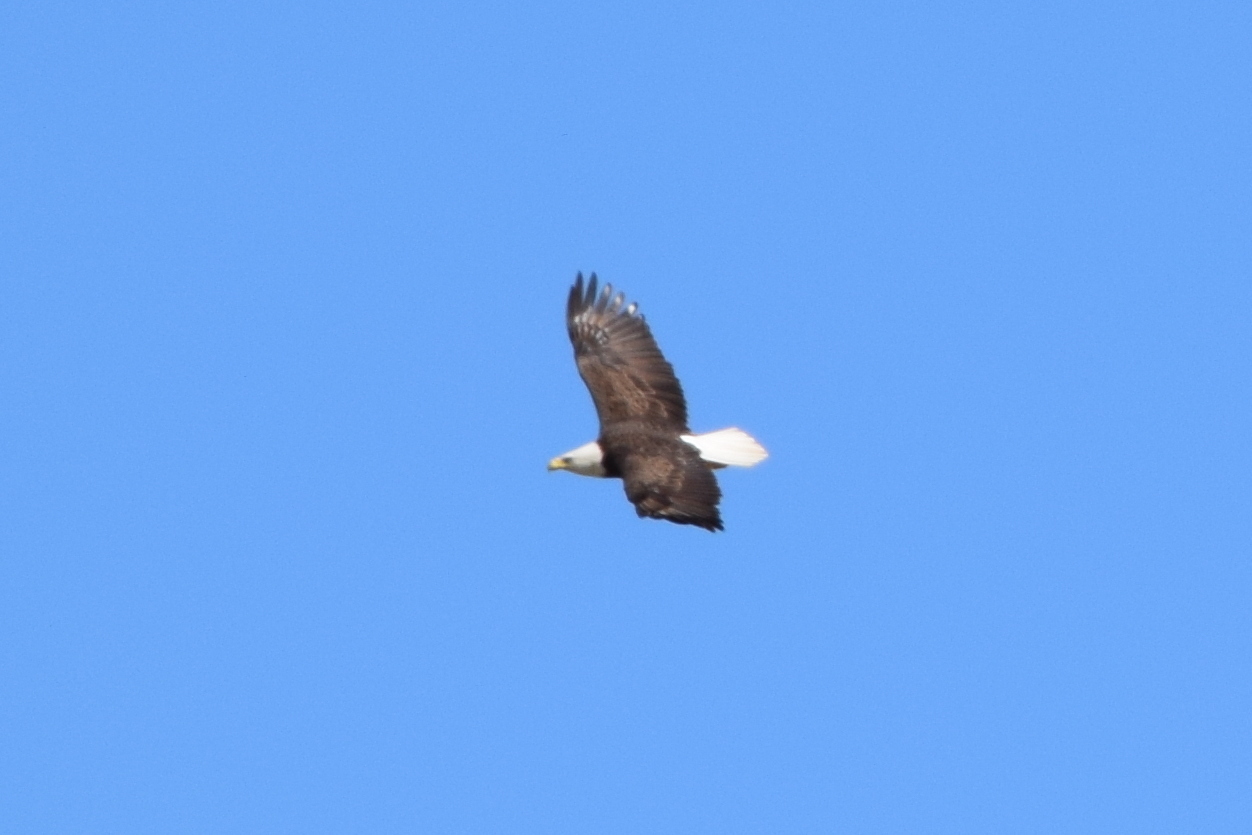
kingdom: Animalia
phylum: Chordata
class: Aves
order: Accipitriformes
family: Accipitridae
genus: Haliaeetus
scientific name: Haliaeetus leucocephalus
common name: Bald eagle
